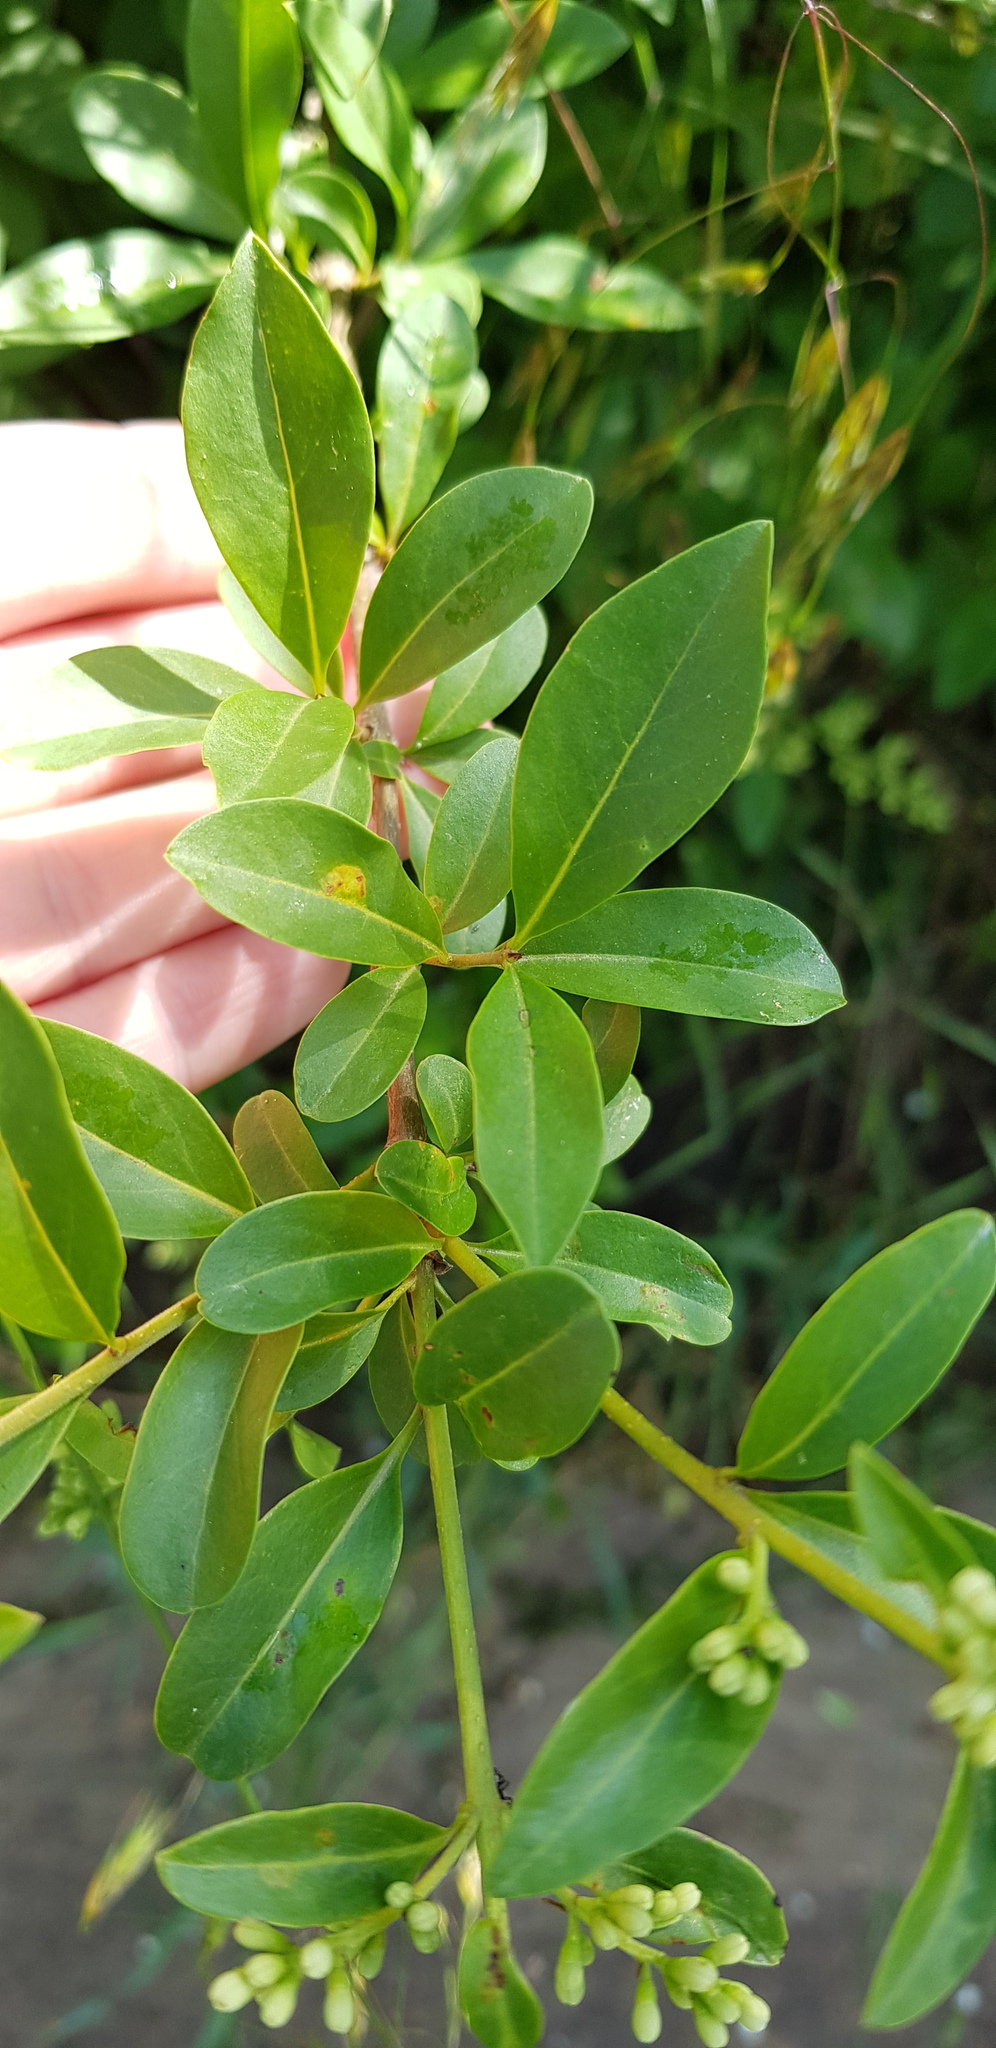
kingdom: Plantae
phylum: Tracheophyta
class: Magnoliopsida
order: Lamiales
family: Oleaceae
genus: Ligustrum
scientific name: Ligustrum vulgare
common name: Wild privet
